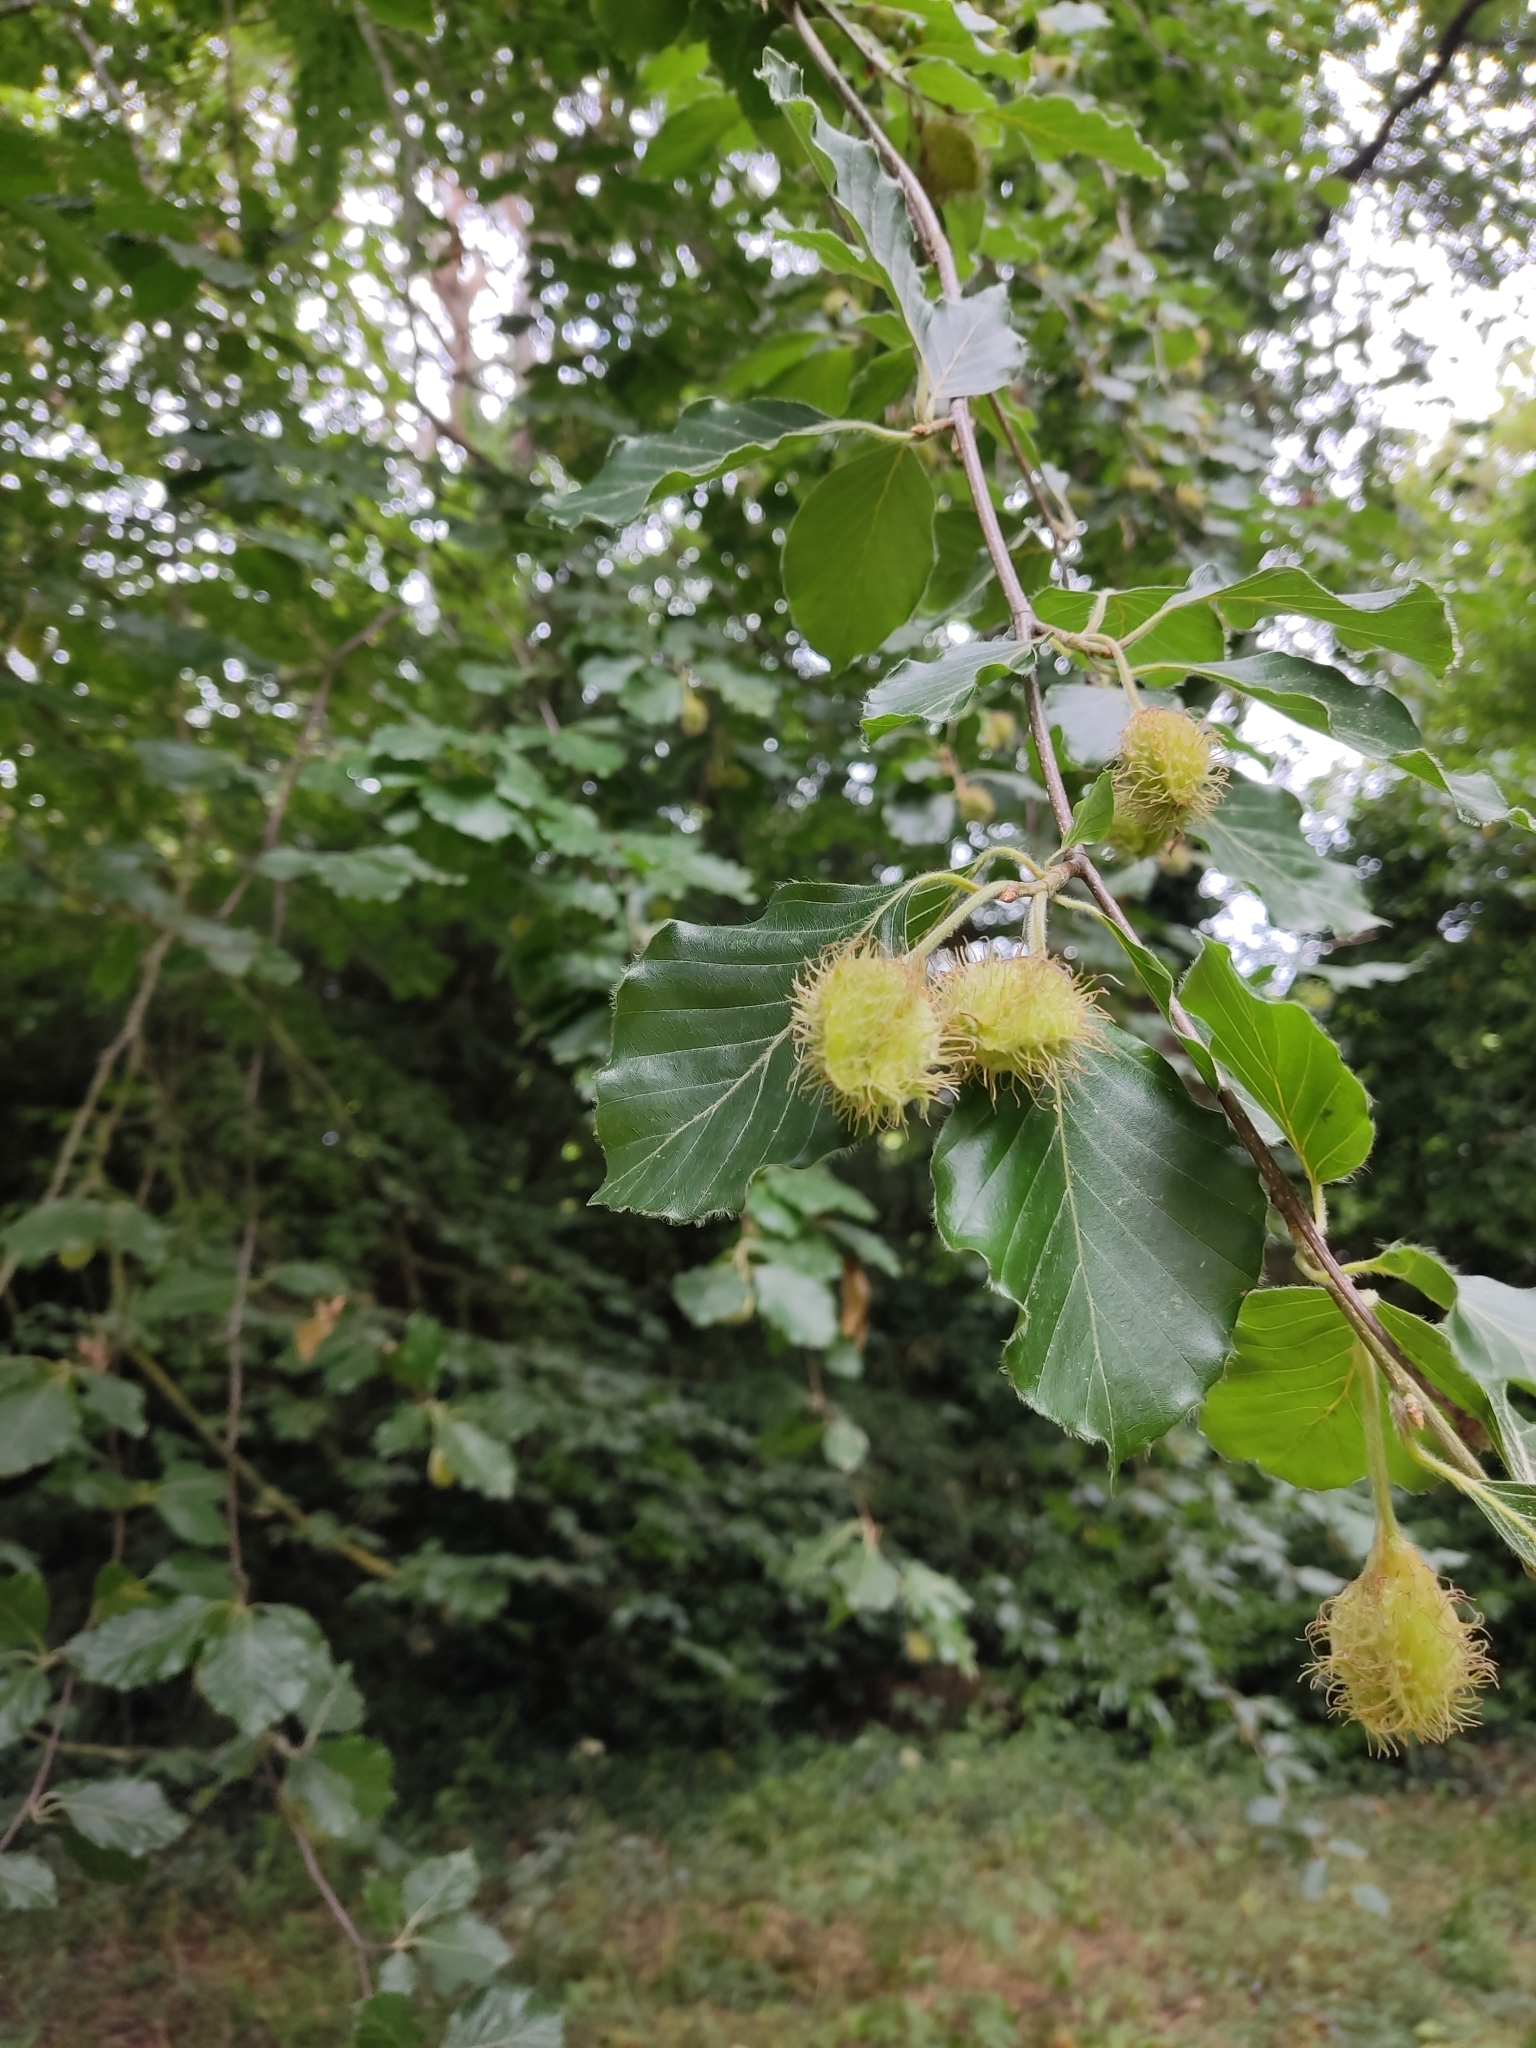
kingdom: Plantae
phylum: Tracheophyta
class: Magnoliopsida
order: Fagales
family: Fagaceae
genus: Fagus
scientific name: Fagus sylvatica
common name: Beech
